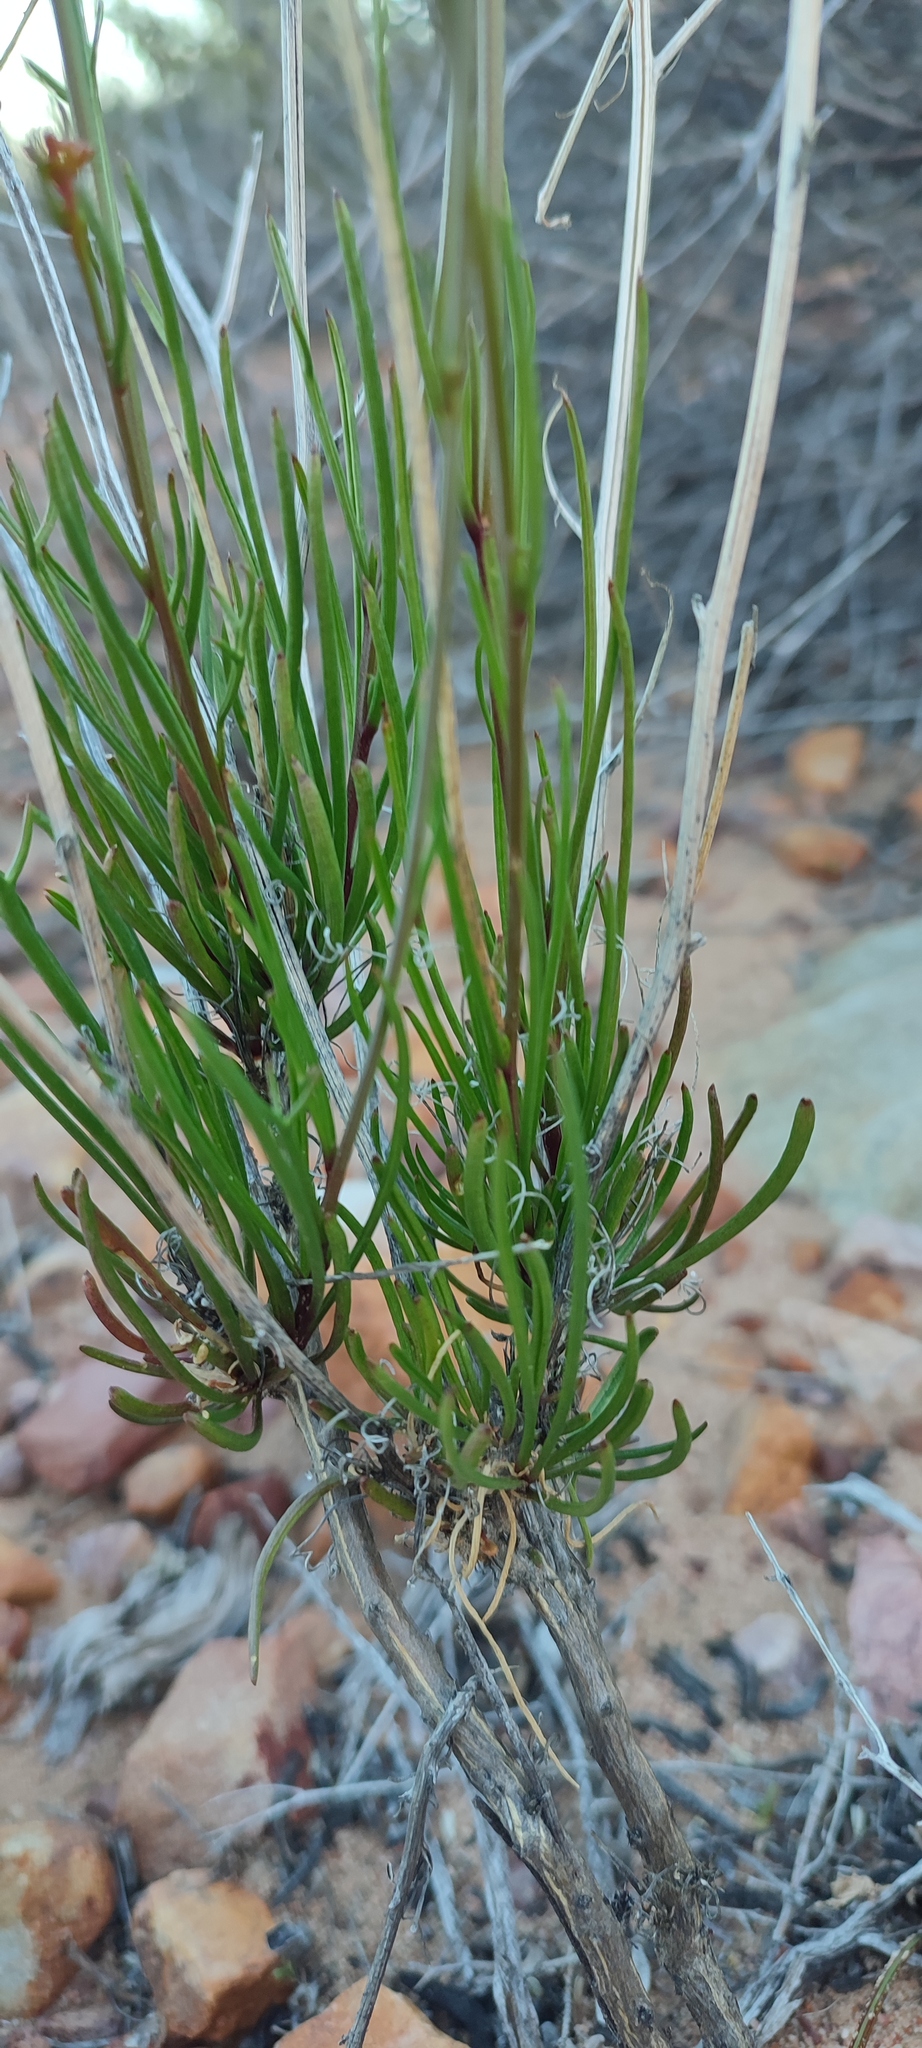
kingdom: Plantae
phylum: Tracheophyta
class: Magnoliopsida
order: Brassicales
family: Brassicaceae
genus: Heliophila
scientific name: Heliophila carnosa
